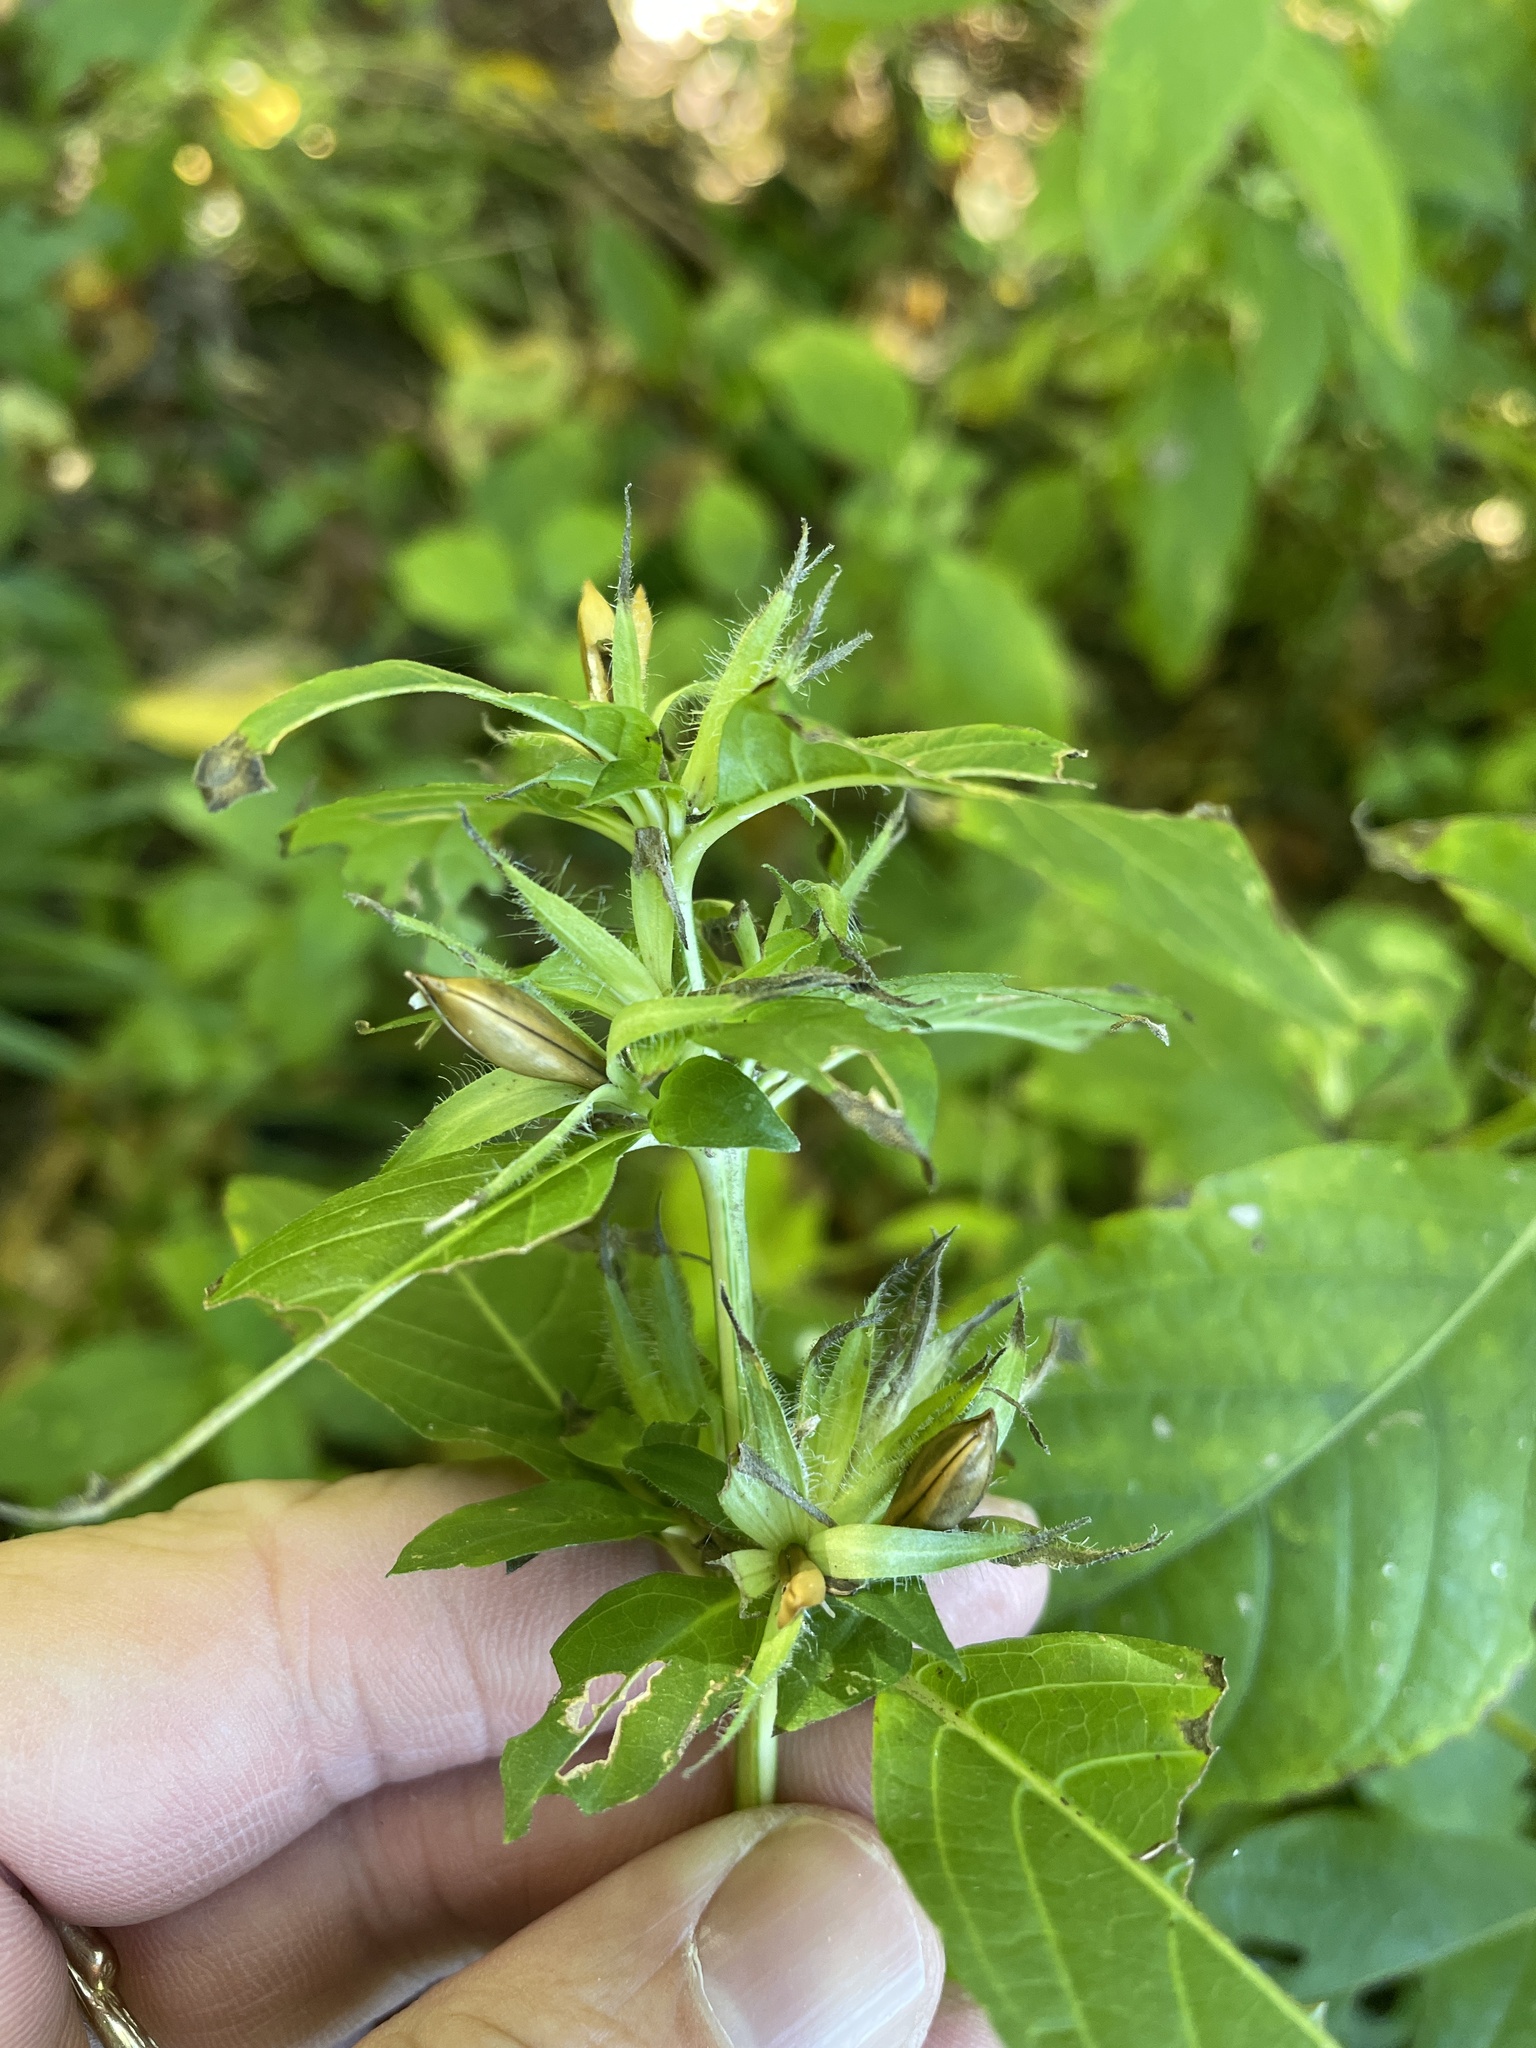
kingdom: Plantae
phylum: Tracheophyta
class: Magnoliopsida
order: Lamiales
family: Acanthaceae
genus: Ruellia
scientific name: Ruellia strepens
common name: Limestone wild petunia
